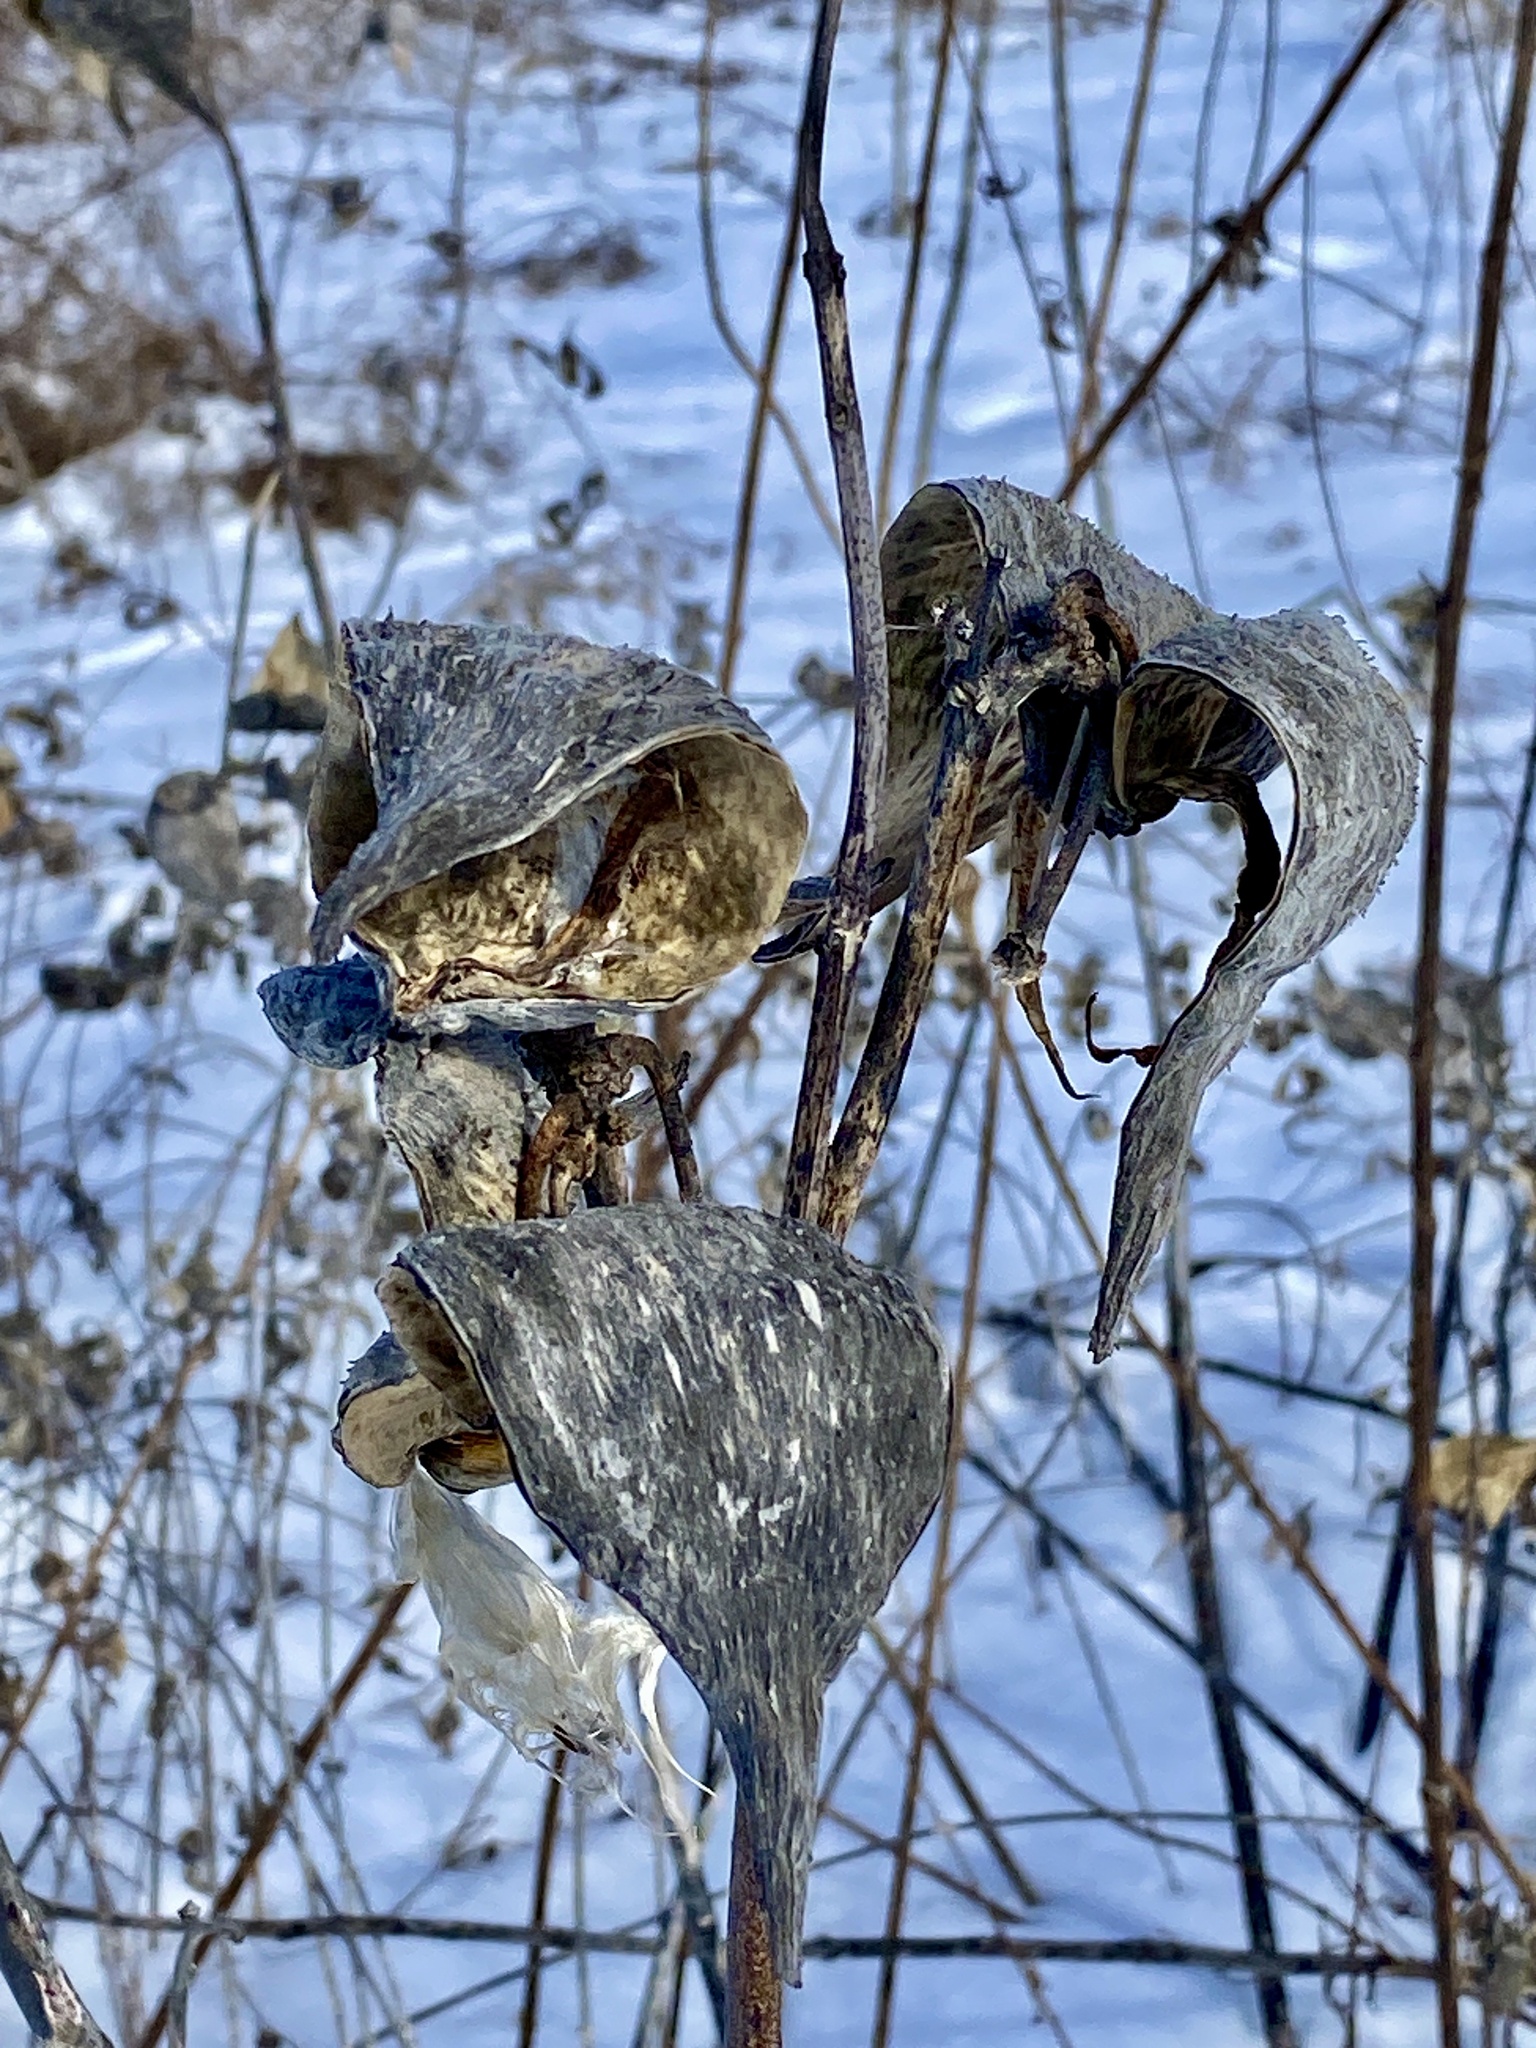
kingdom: Plantae
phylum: Tracheophyta
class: Magnoliopsida
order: Gentianales
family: Apocynaceae
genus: Asclepias
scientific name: Asclepias syriaca
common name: Common milkweed
